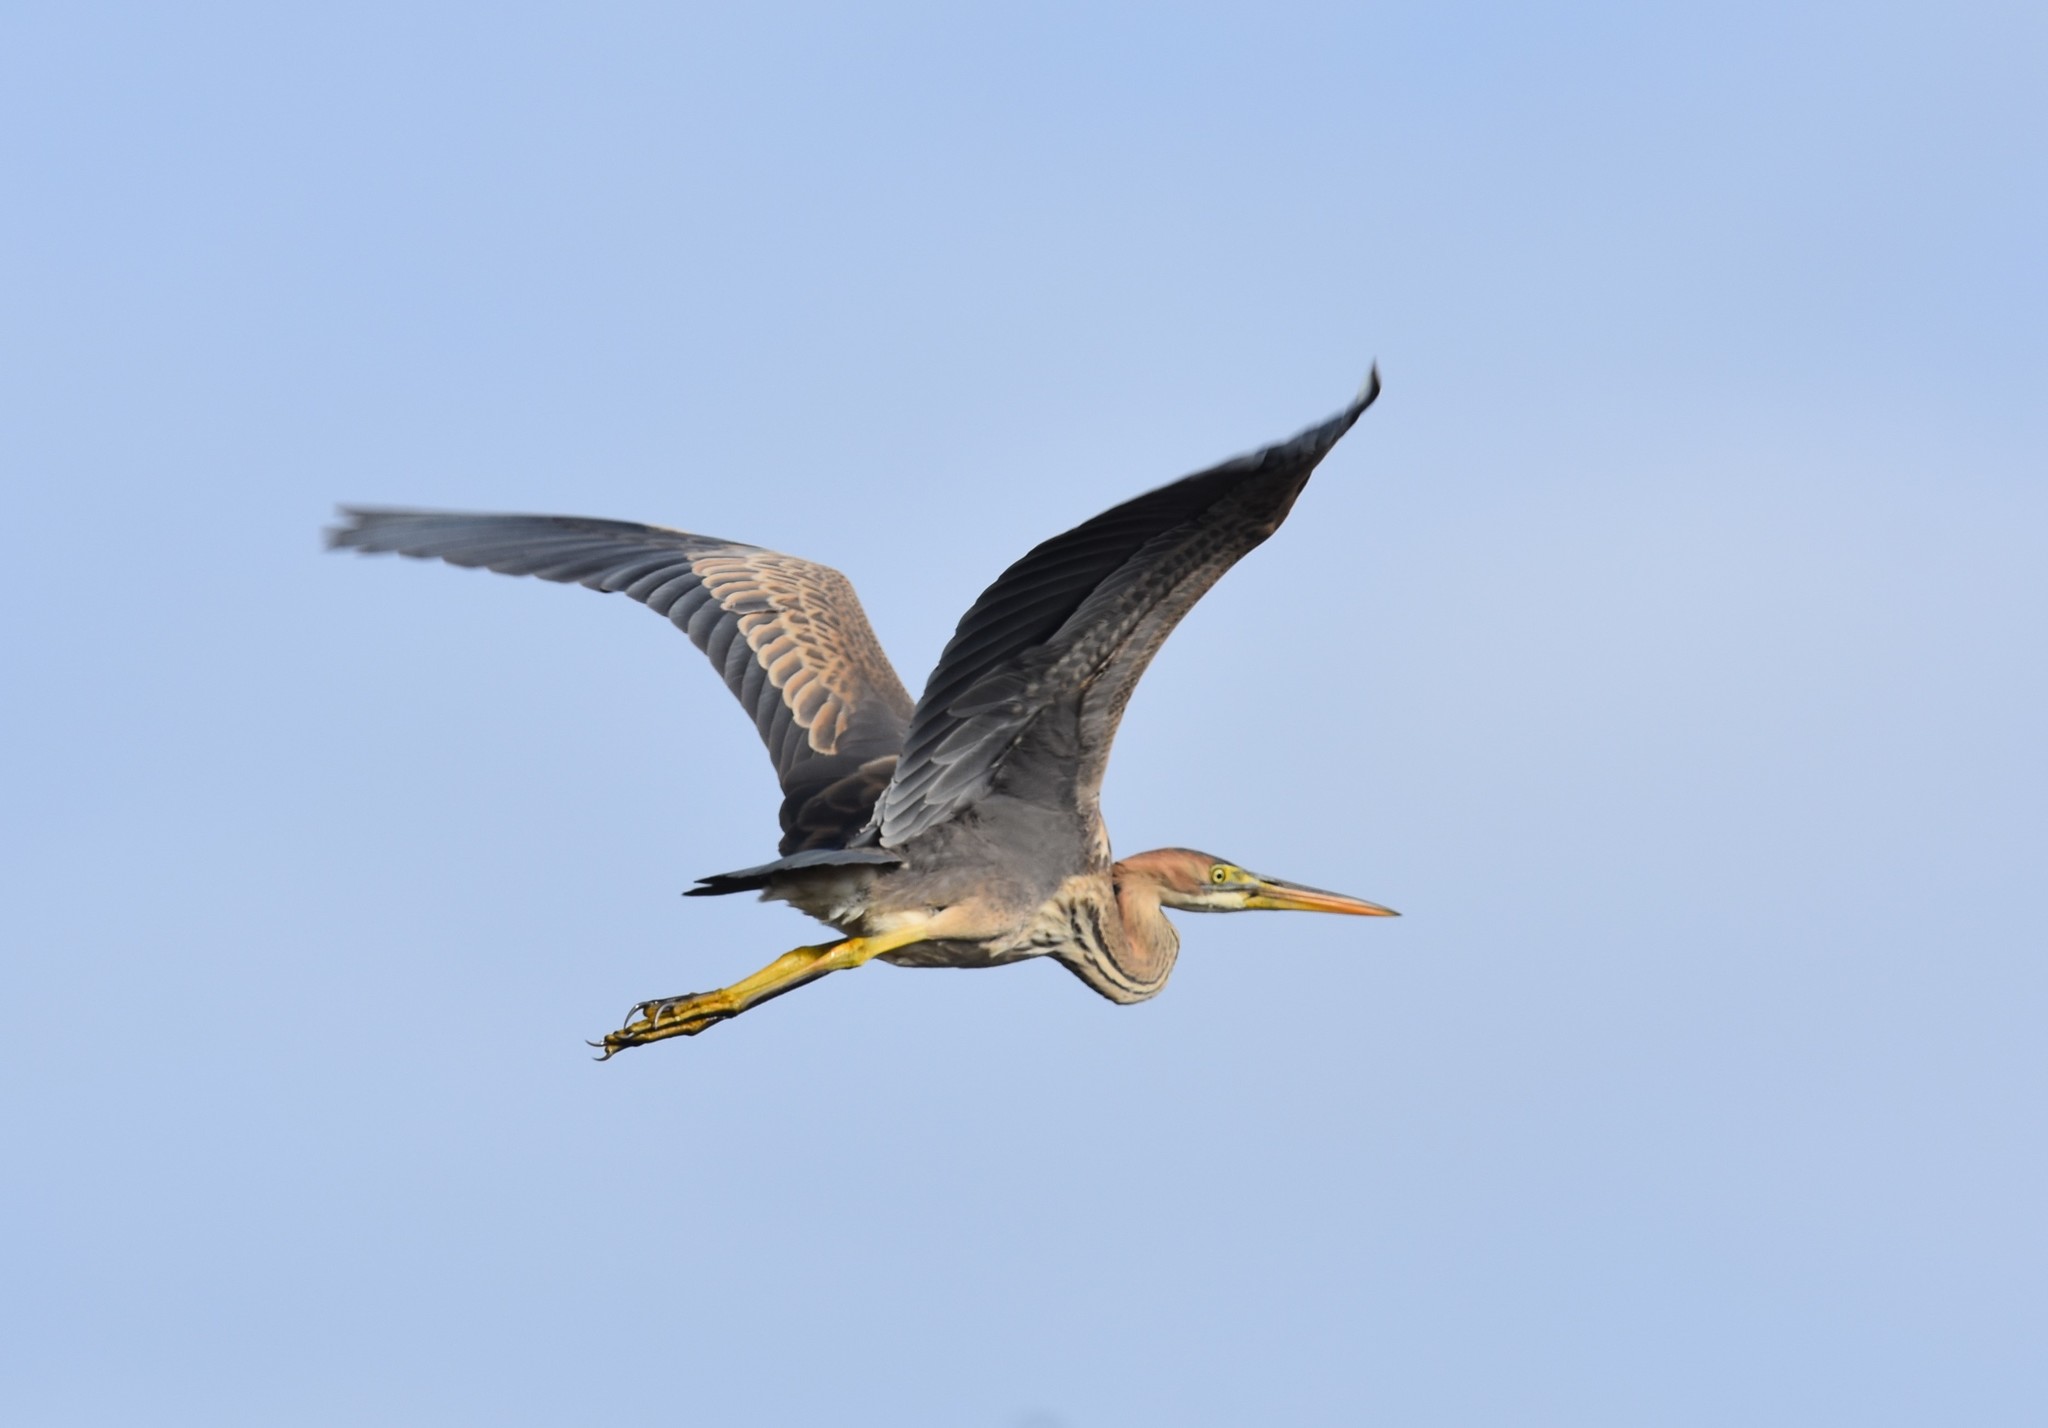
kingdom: Animalia
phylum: Chordata
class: Aves
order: Pelecaniformes
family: Ardeidae
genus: Ardea
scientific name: Ardea purpurea
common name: Purple heron
